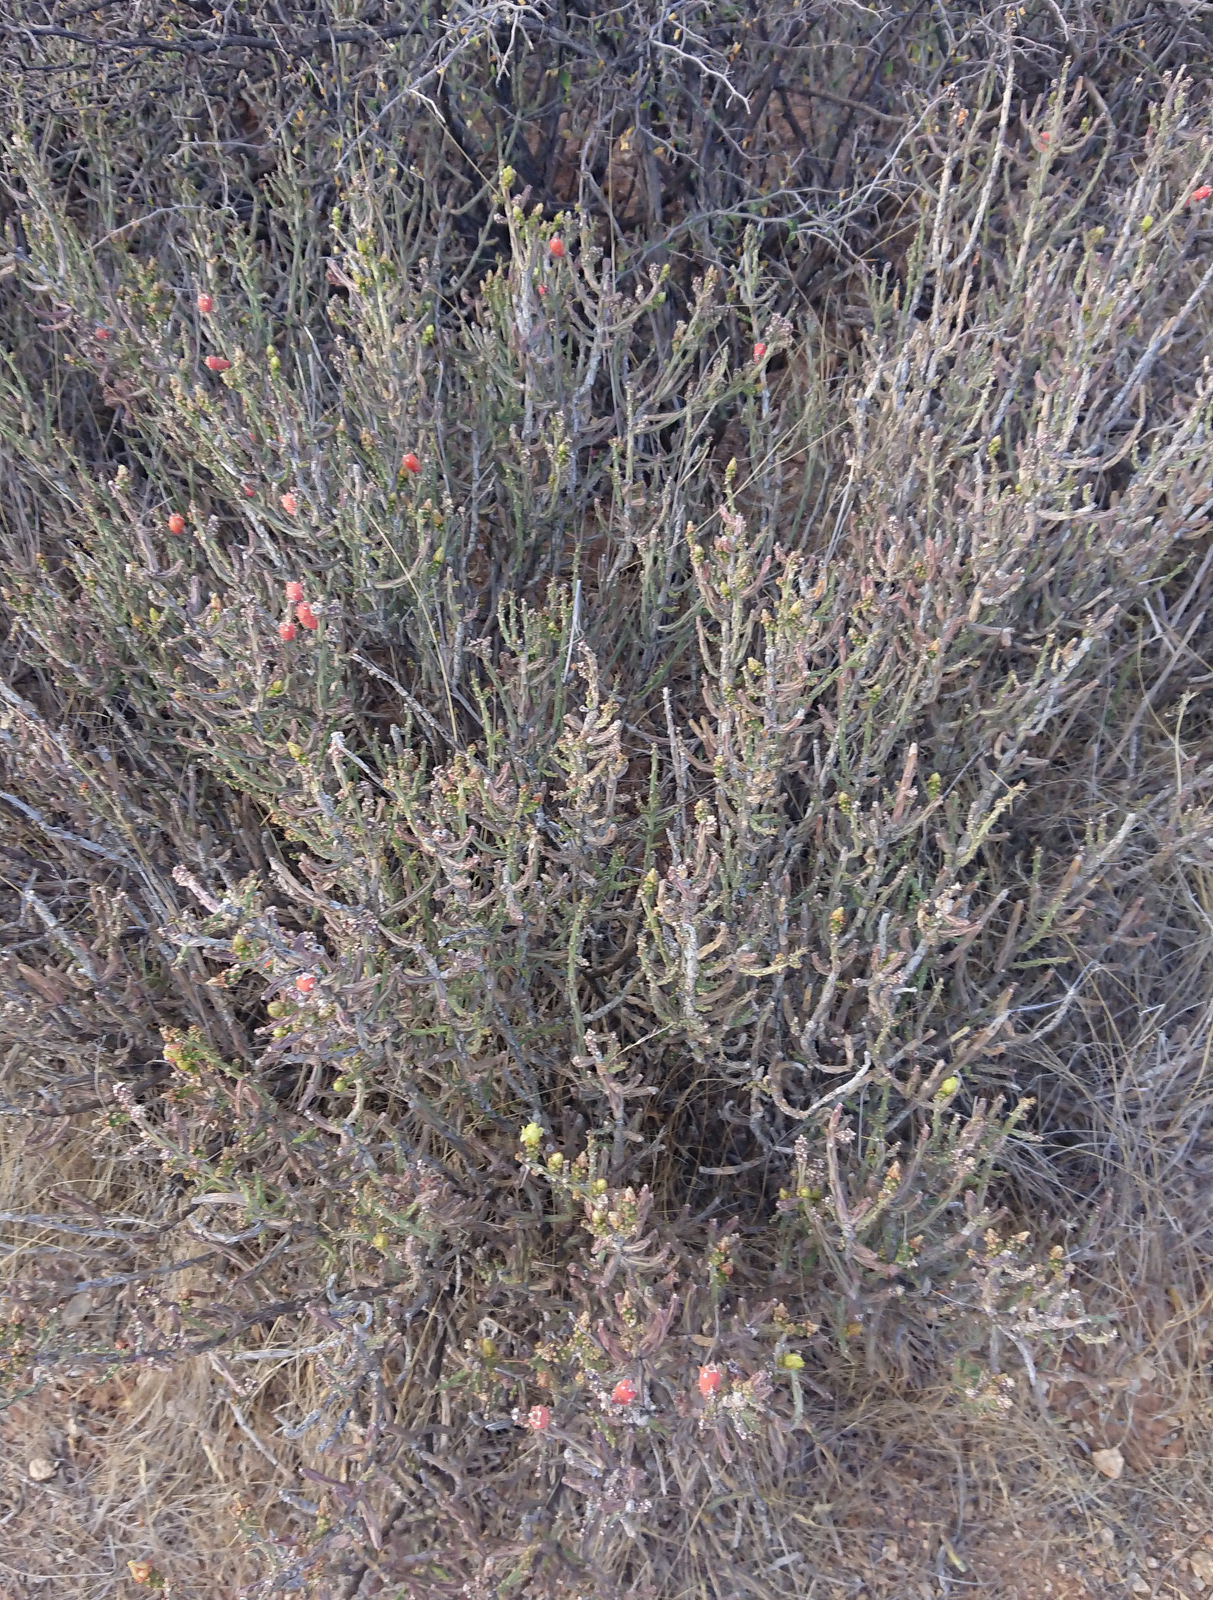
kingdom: Plantae
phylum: Tracheophyta
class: Magnoliopsida
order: Caryophyllales
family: Cactaceae
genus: Cylindropuntia
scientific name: Cylindropuntia leptocaulis
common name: Christmas cactus
